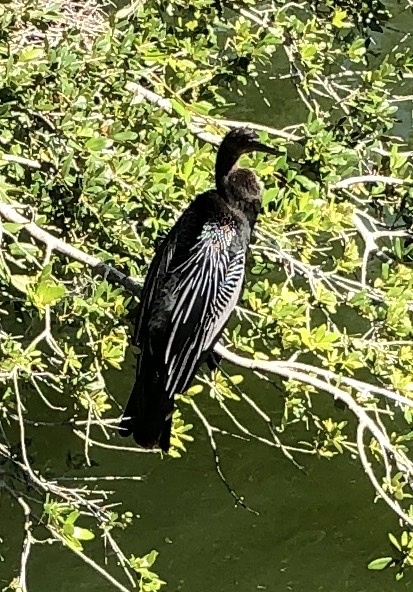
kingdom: Animalia
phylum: Chordata
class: Aves
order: Suliformes
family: Anhingidae
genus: Anhinga
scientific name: Anhinga anhinga
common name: Anhinga
